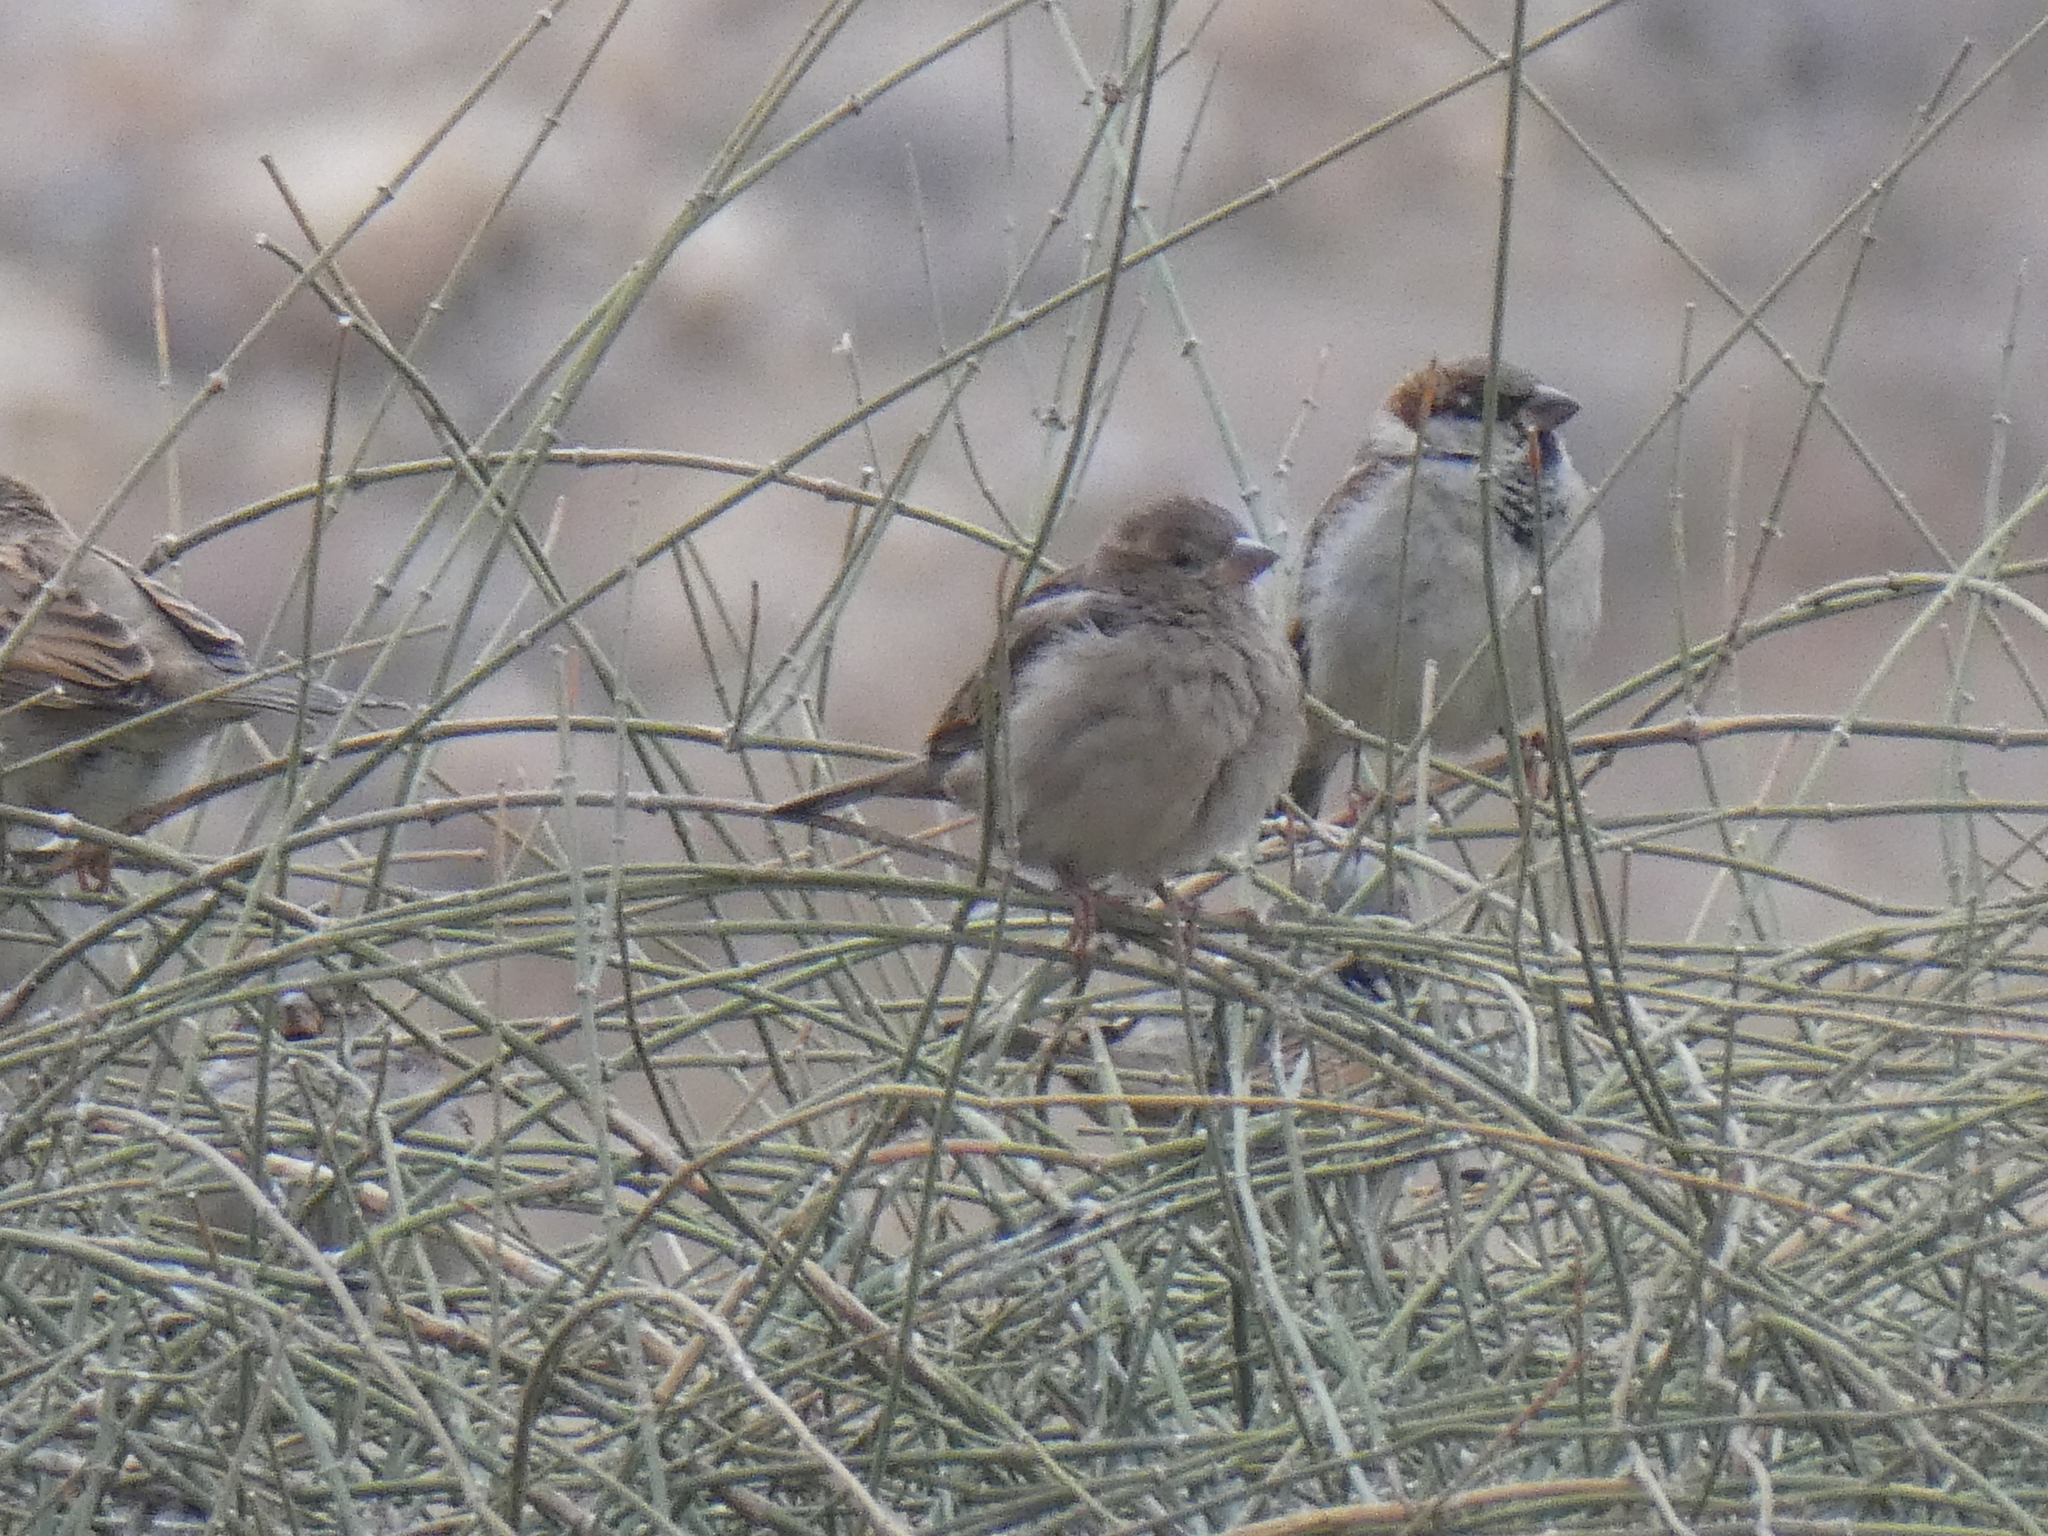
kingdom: Animalia
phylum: Chordata
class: Aves
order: Passeriformes
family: Passeridae
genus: Passer
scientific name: Passer domesticus
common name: House sparrow
